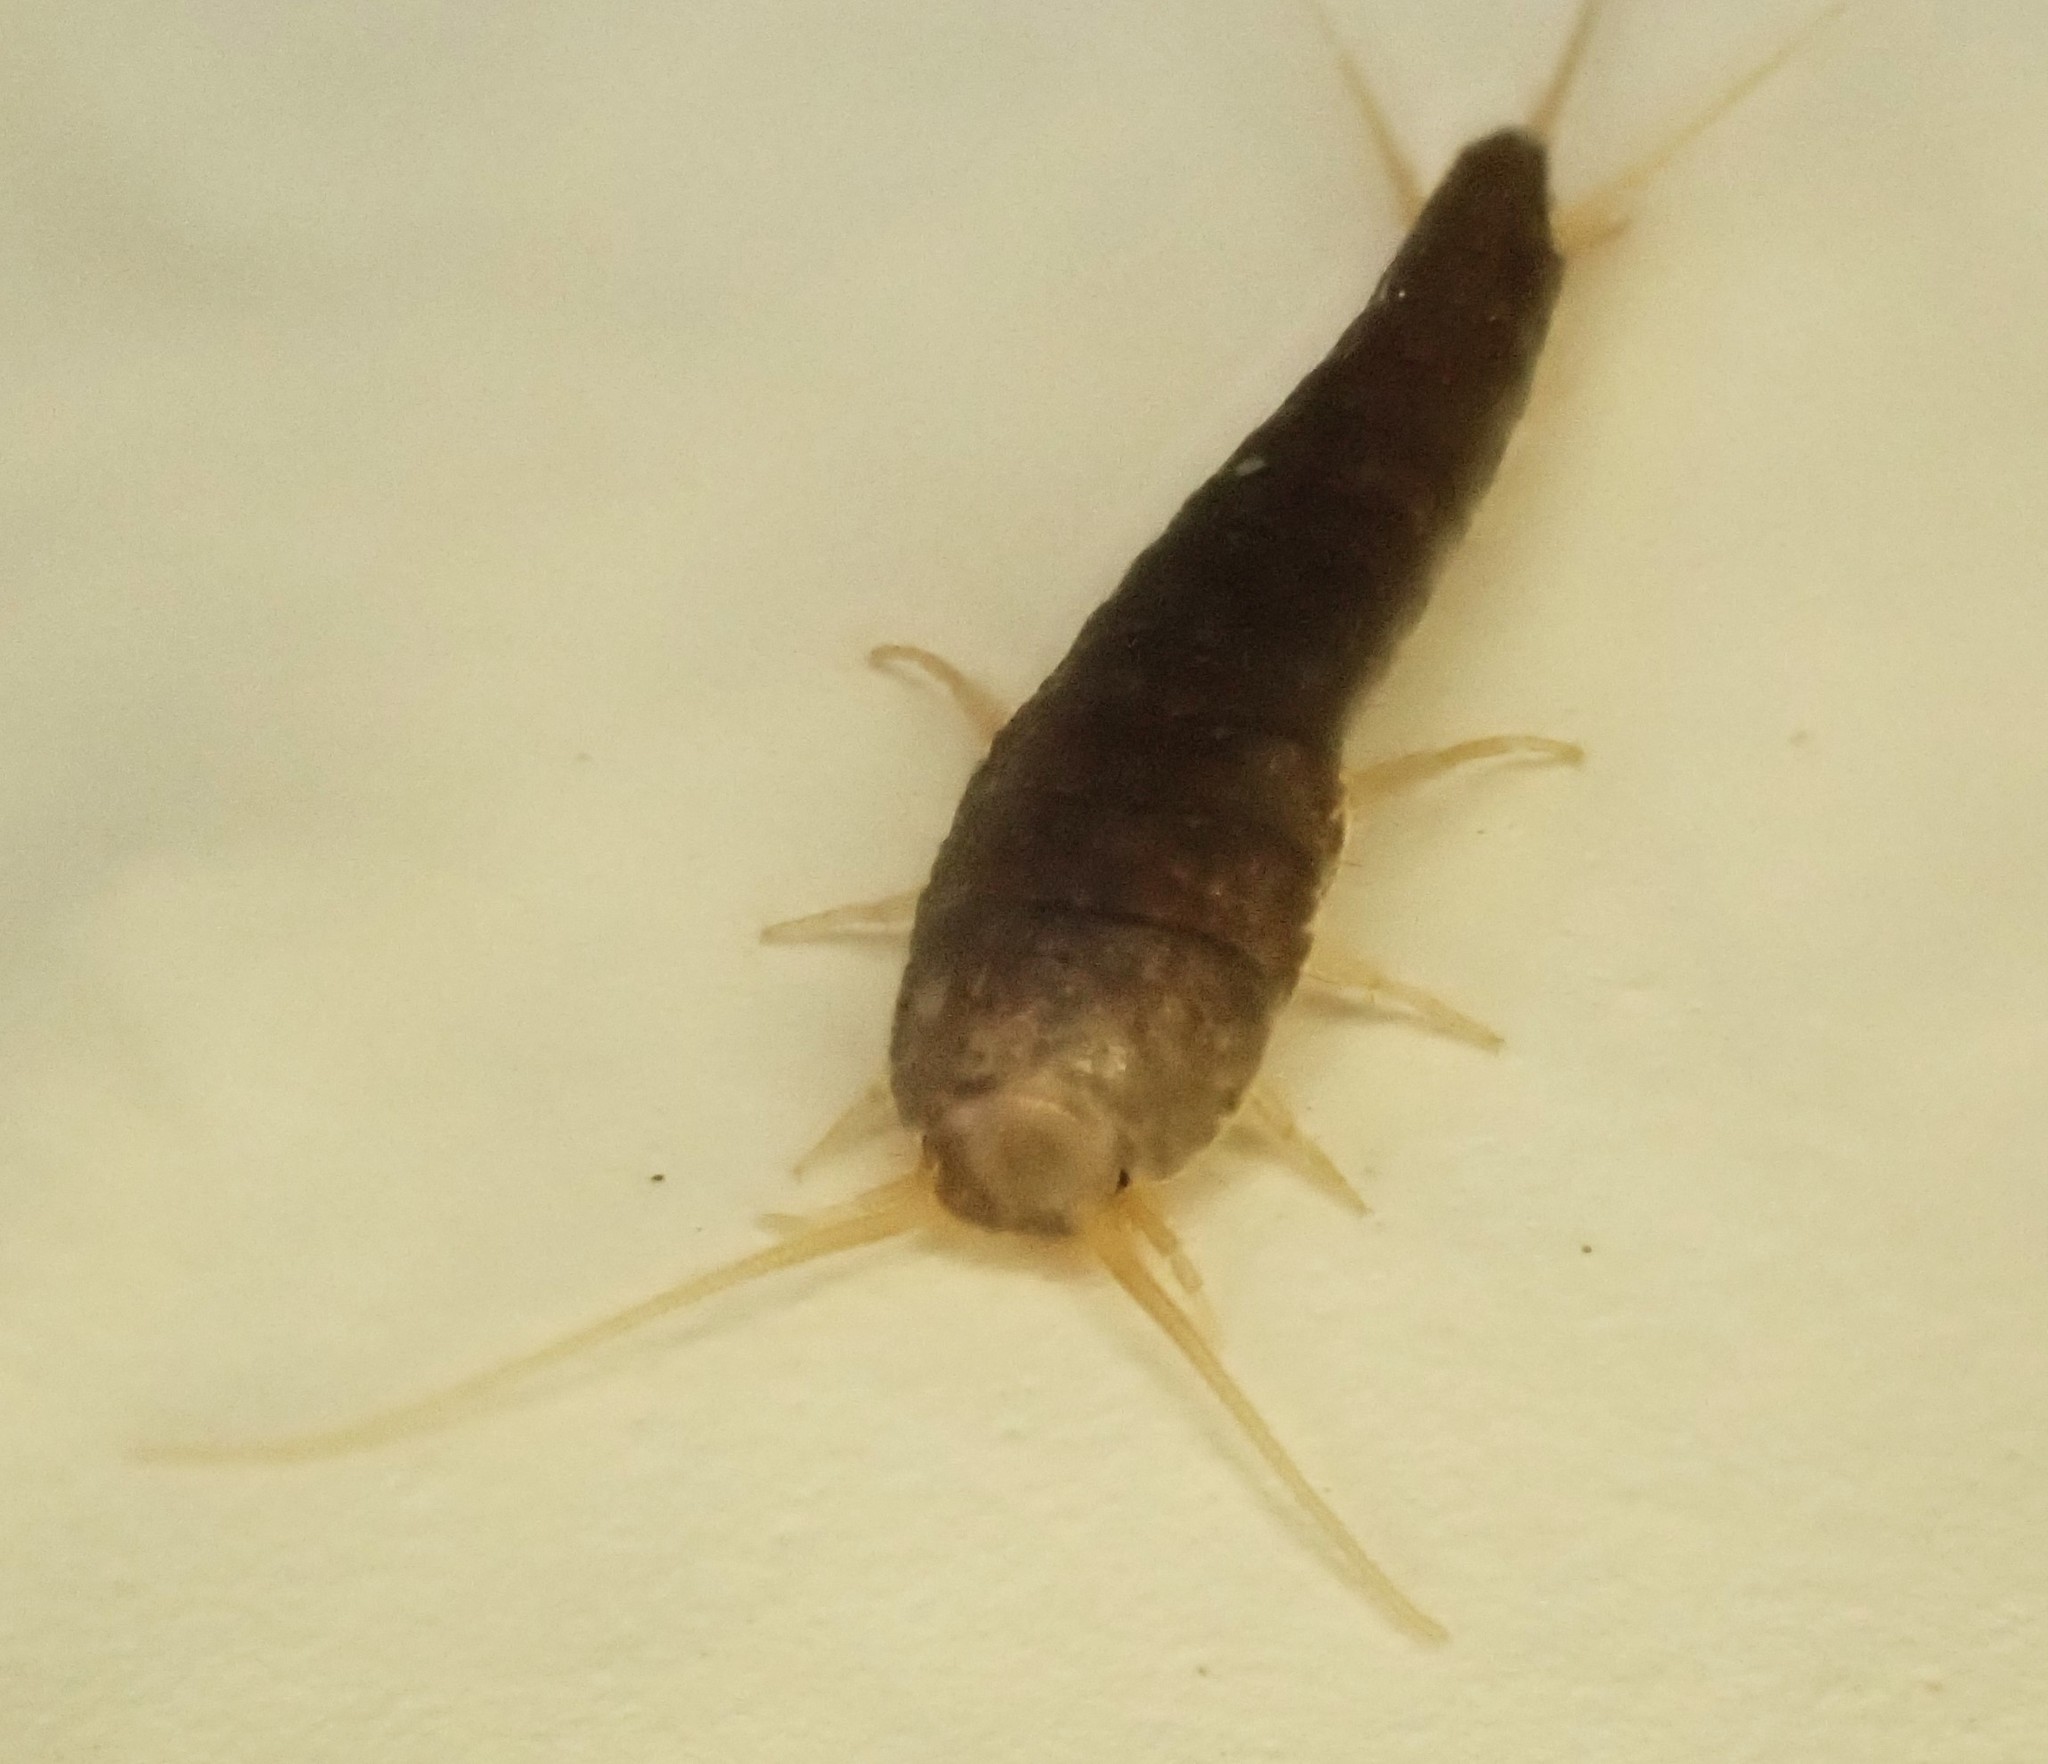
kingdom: Animalia
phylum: Arthropoda
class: Insecta
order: Zygentoma
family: Lepismatidae
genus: Lepisma
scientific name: Lepisma saccharinum
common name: Silverfish
